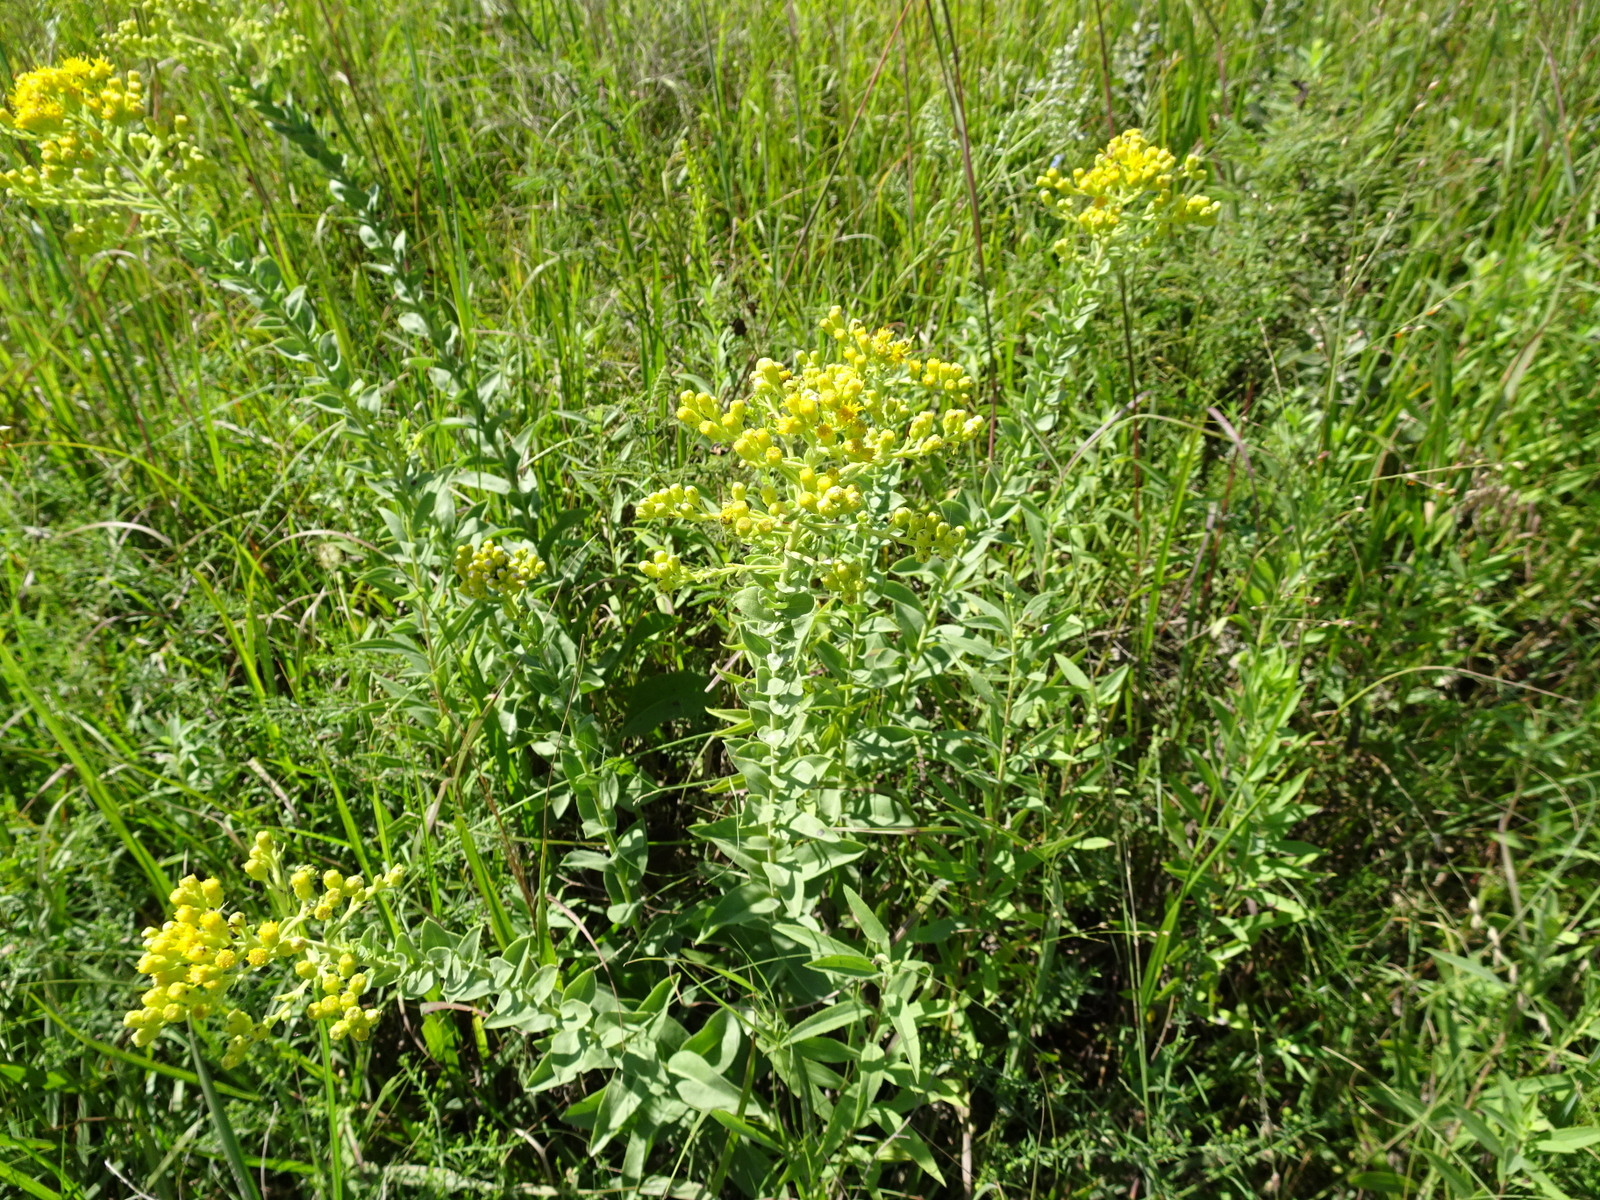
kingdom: Plantae
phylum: Tracheophyta
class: Magnoliopsida
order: Asterales
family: Asteraceae
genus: Solidago
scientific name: Solidago rigida
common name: Rigid goldenrod
